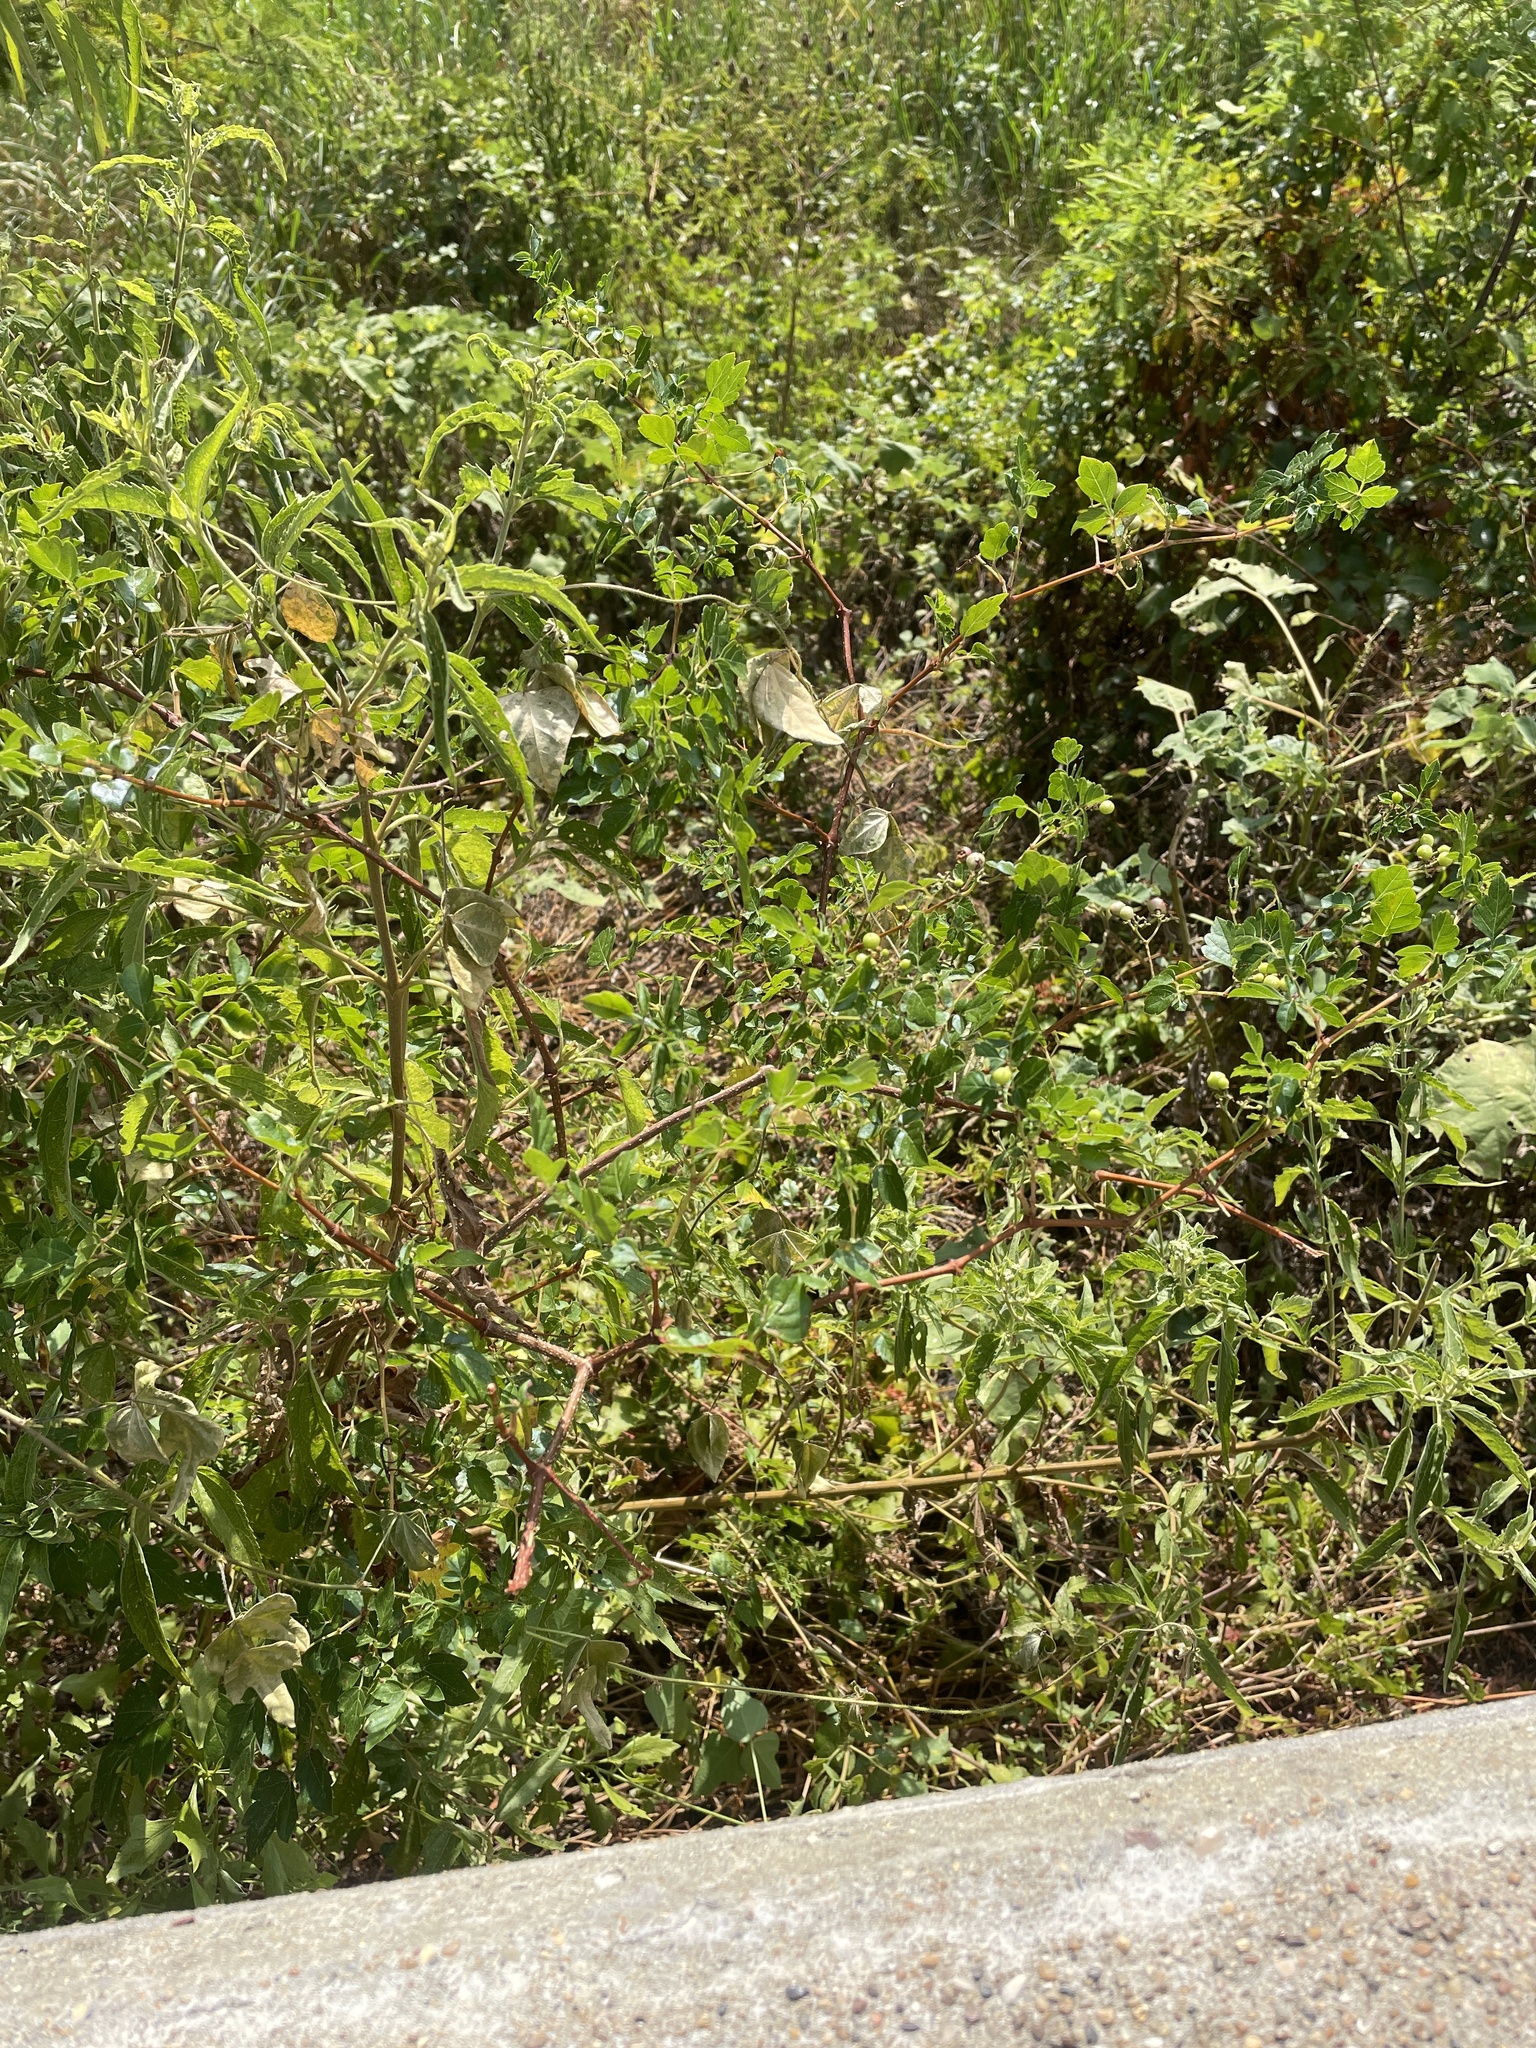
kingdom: Plantae
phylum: Tracheophyta
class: Magnoliopsida
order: Vitales
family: Vitaceae
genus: Nekemias
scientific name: Nekemias arborea
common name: Peppervine
